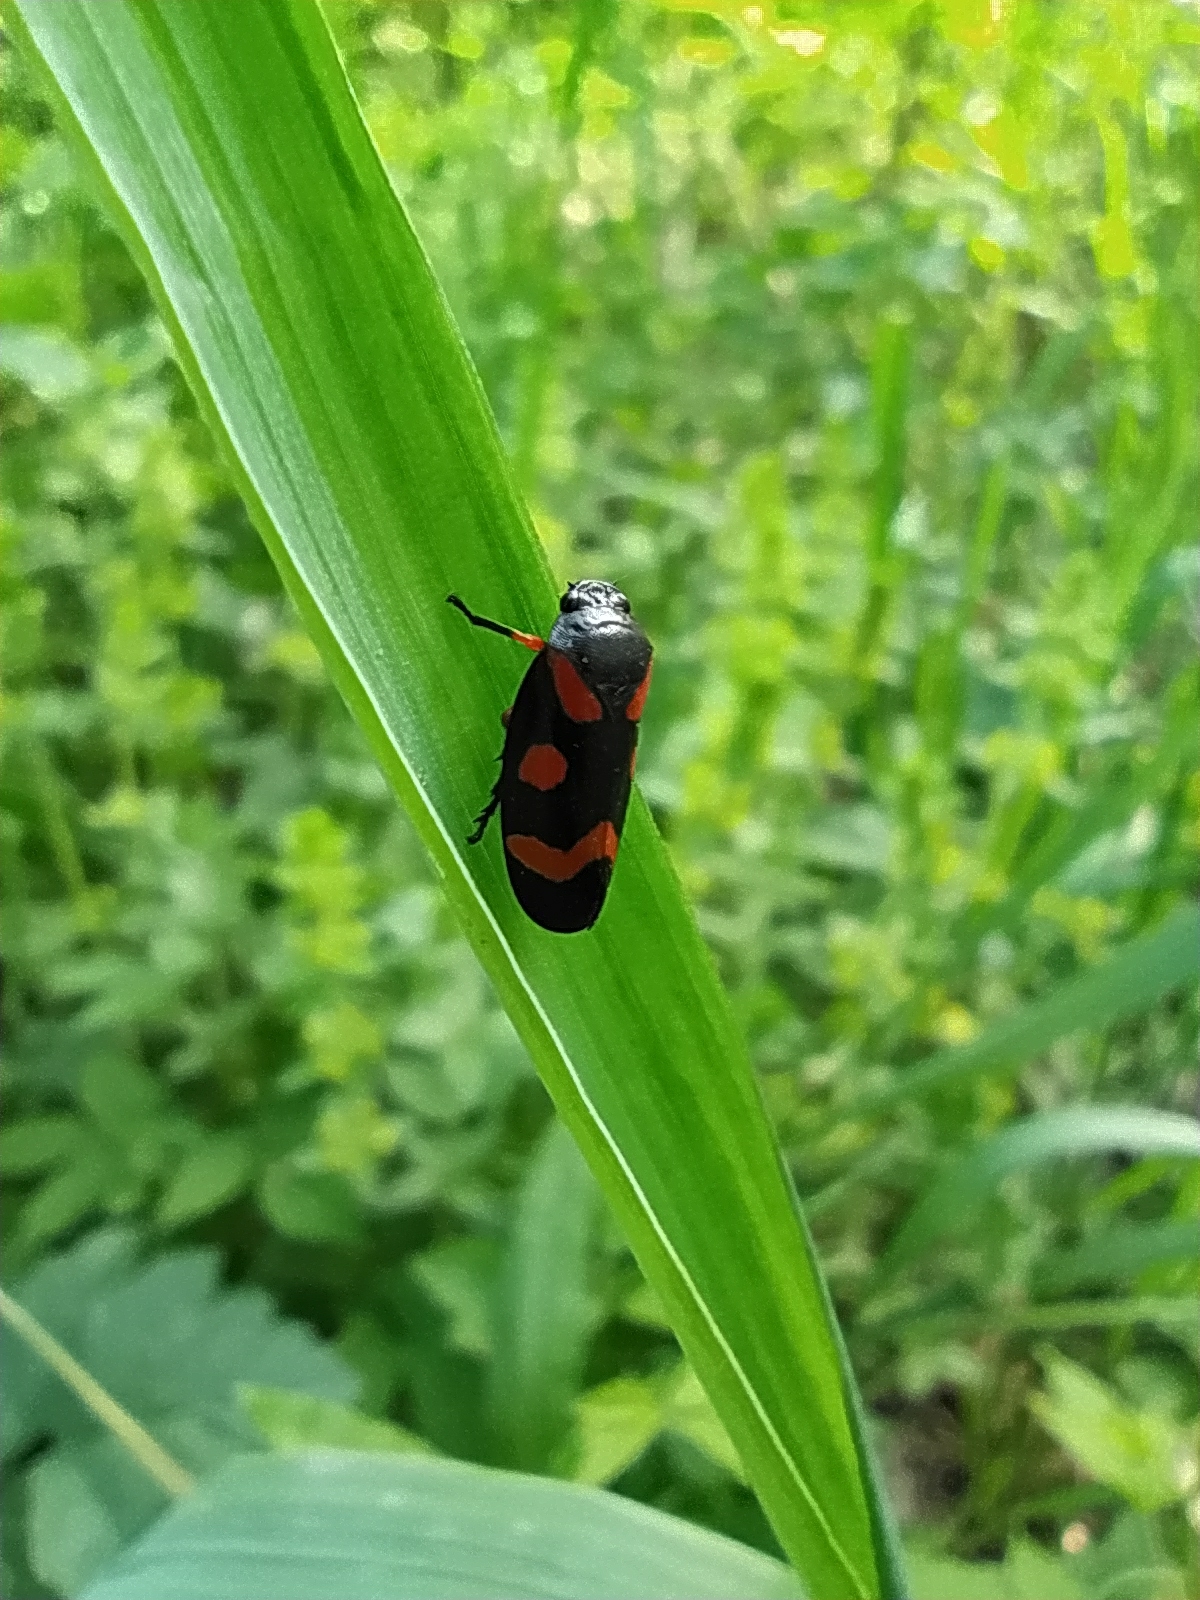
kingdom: Animalia
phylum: Arthropoda
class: Insecta
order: Hemiptera
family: Cercopidae
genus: Cercopis
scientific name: Cercopis intermedia
